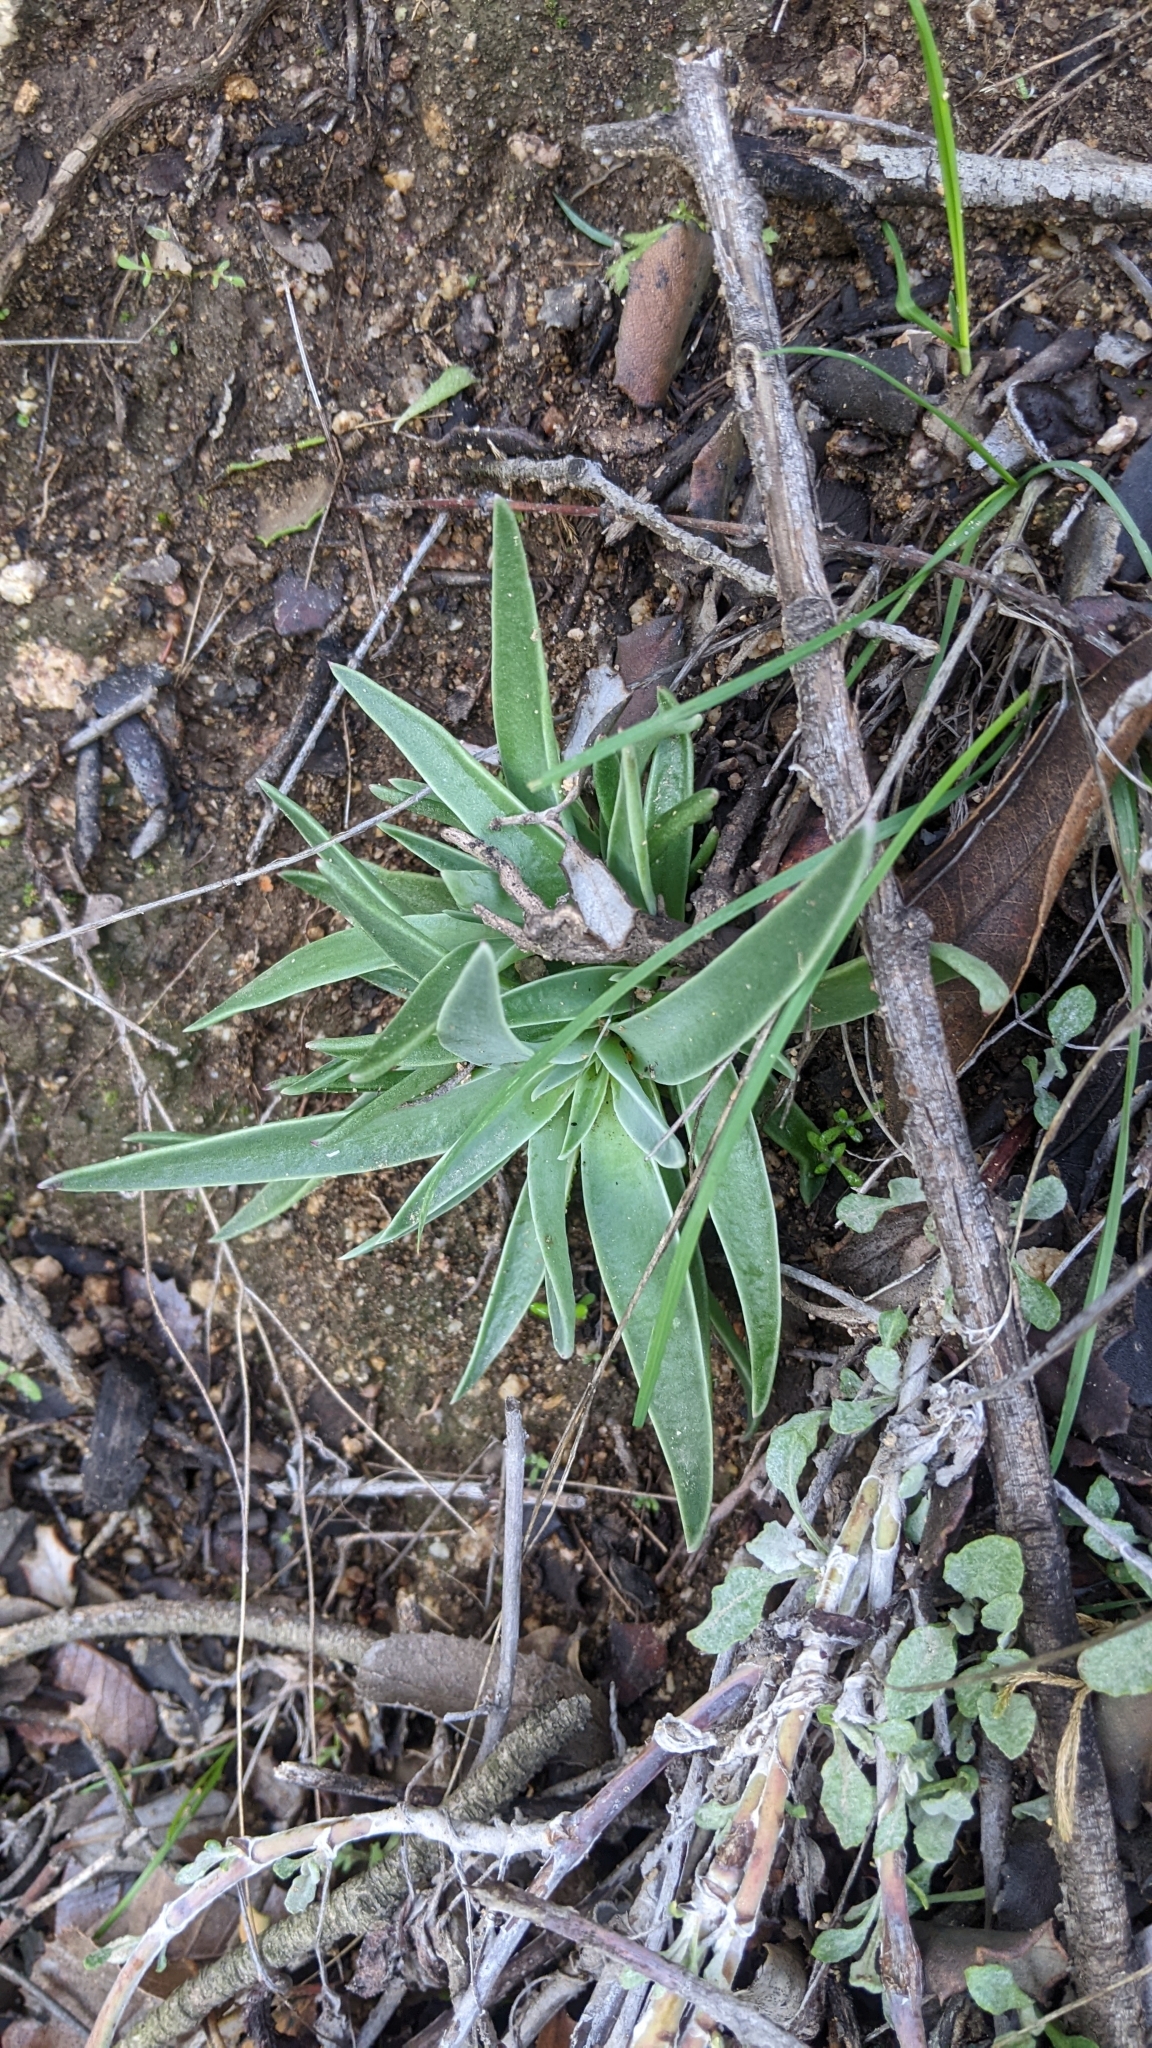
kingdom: Plantae
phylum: Tracheophyta
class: Magnoliopsida
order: Saxifragales
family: Crassulaceae
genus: Dudleya
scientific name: Dudleya lanceolata
